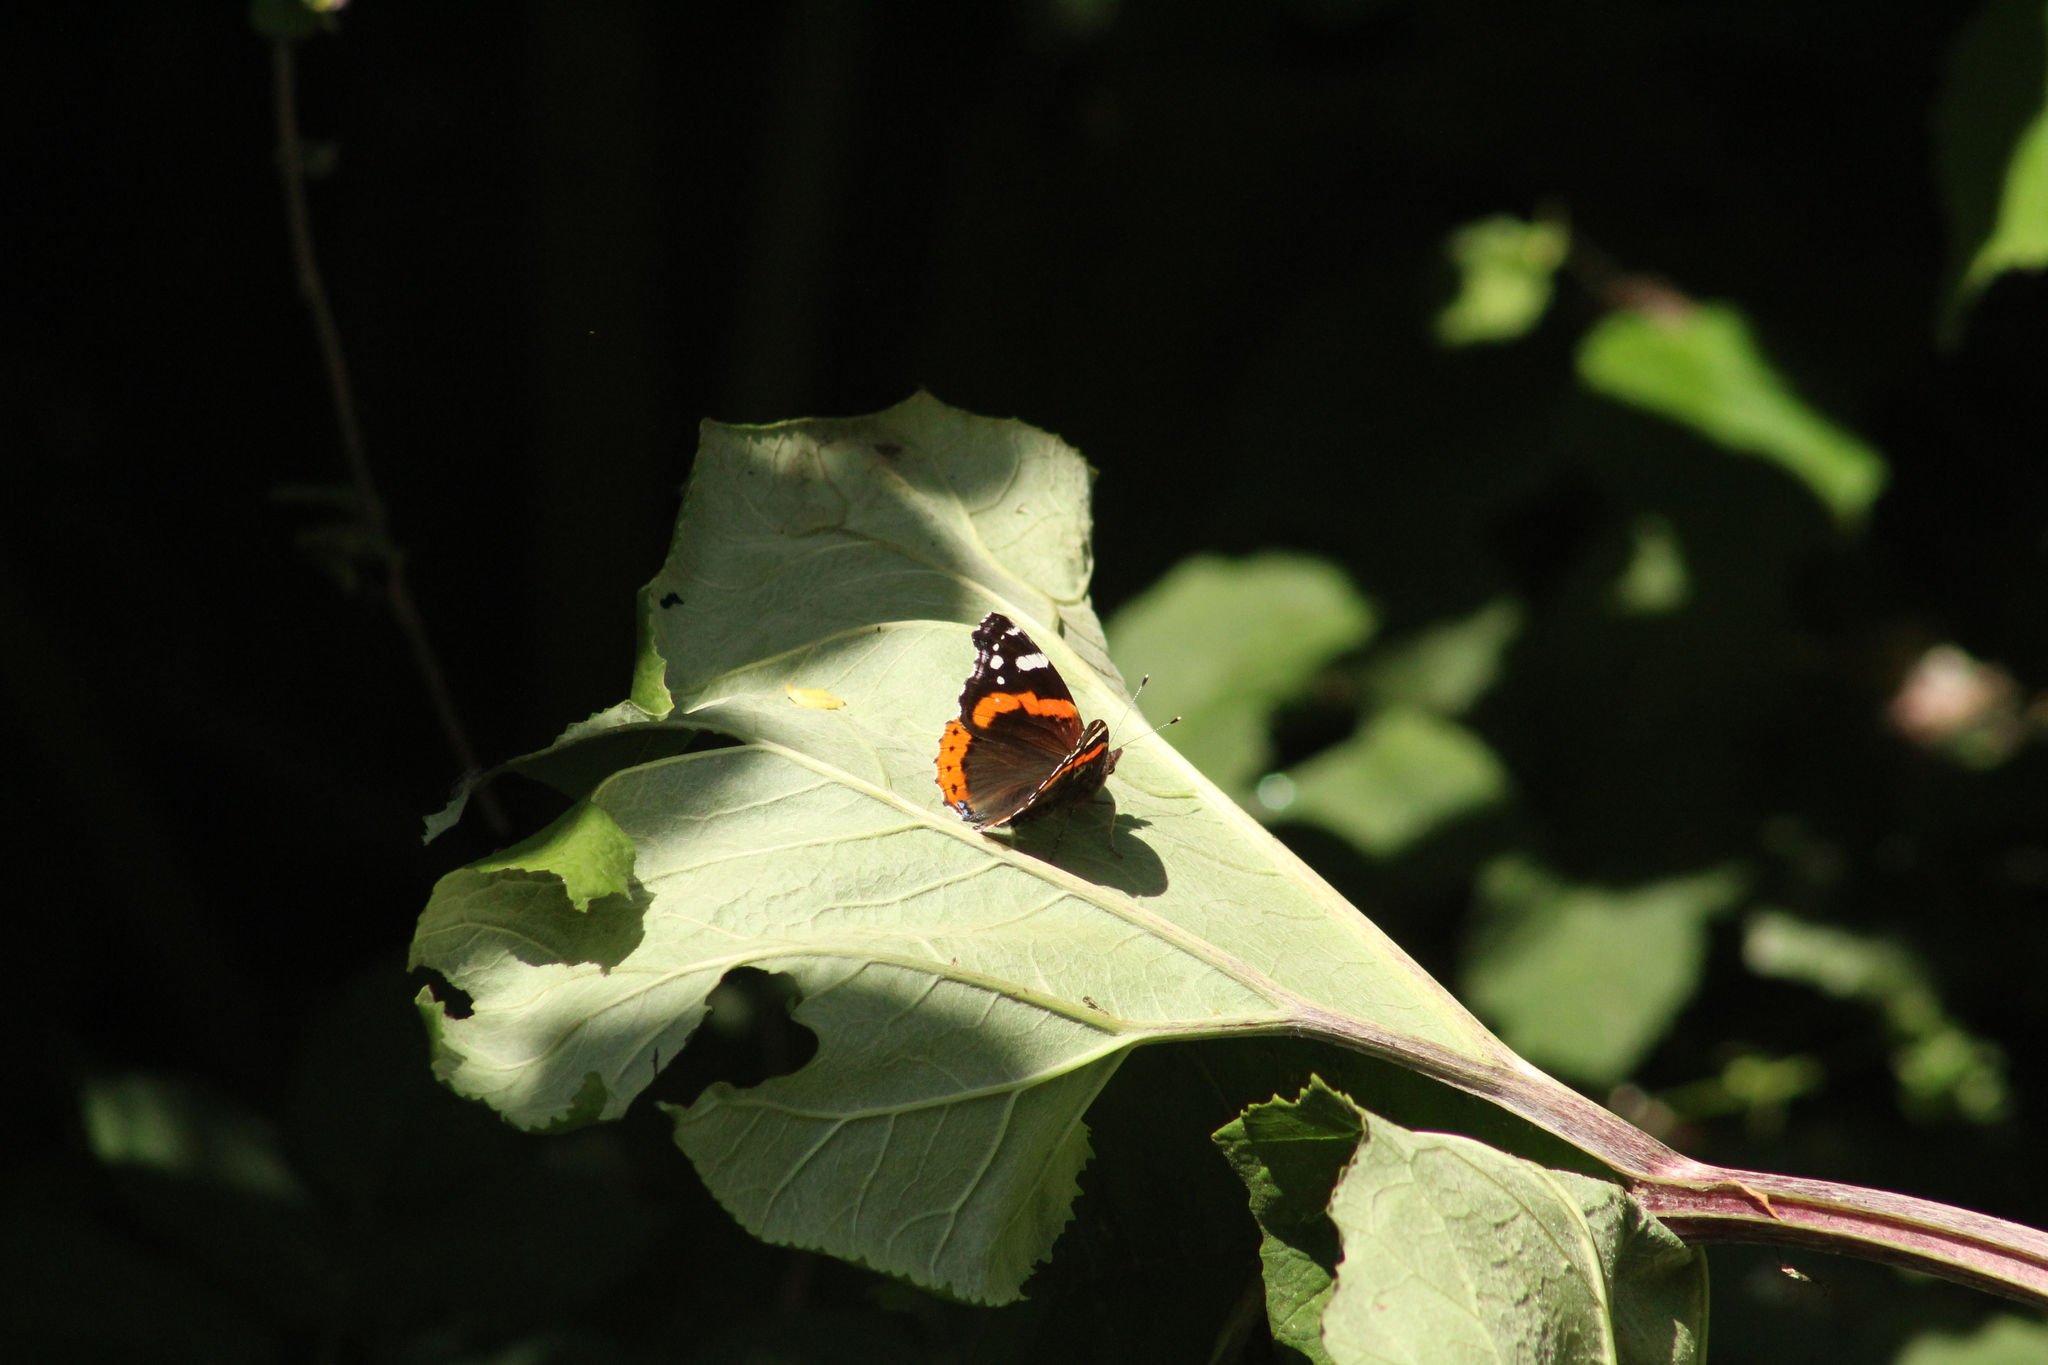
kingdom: Animalia
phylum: Arthropoda
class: Insecta
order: Lepidoptera
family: Nymphalidae
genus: Vanessa
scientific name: Vanessa atalanta
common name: Red admiral
